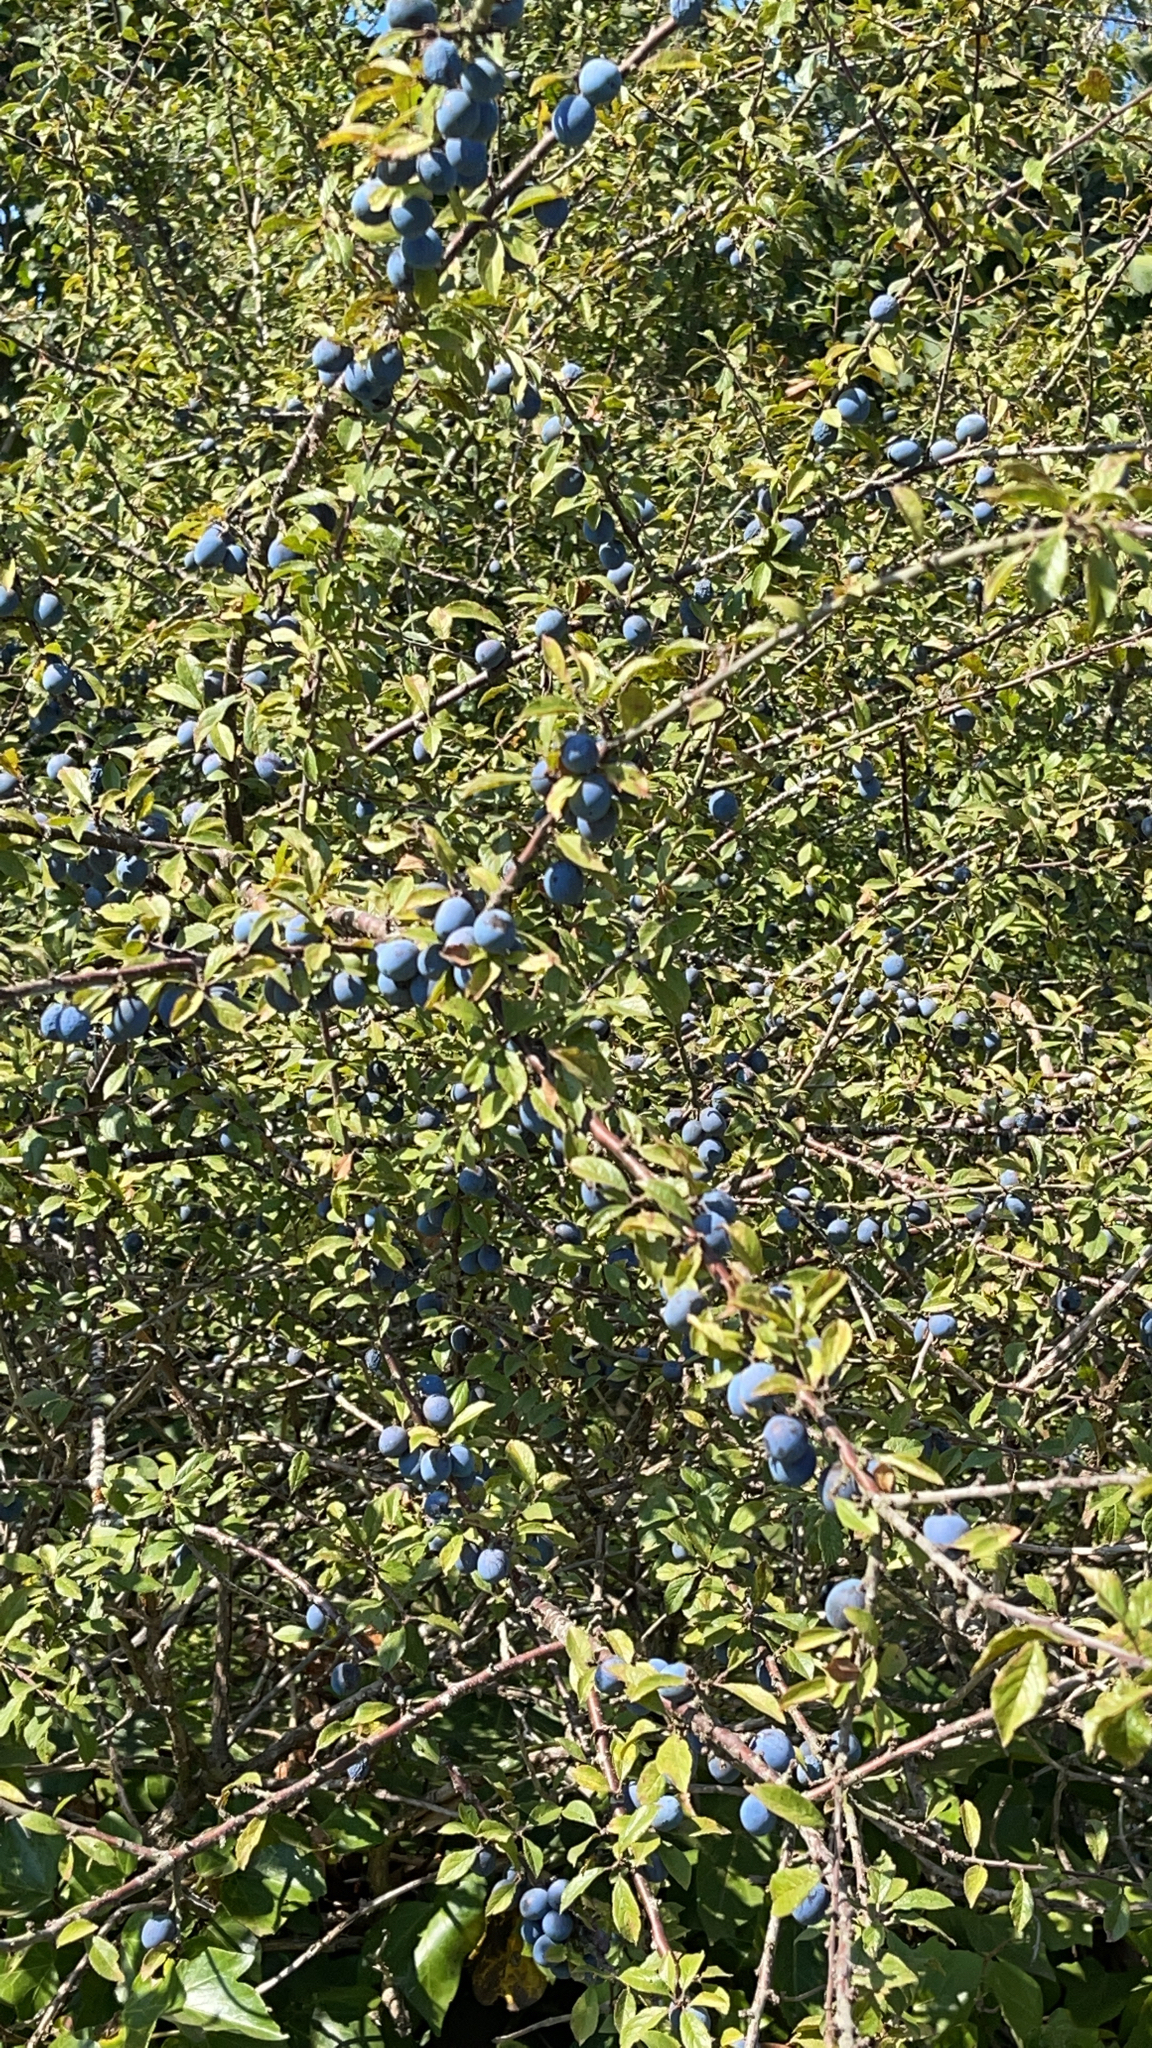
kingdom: Plantae
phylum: Tracheophyta
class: Magnoliopsida
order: Rosales
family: Rosaceae
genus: Prunus
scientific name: Prunus spinosa
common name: Blackthorn
